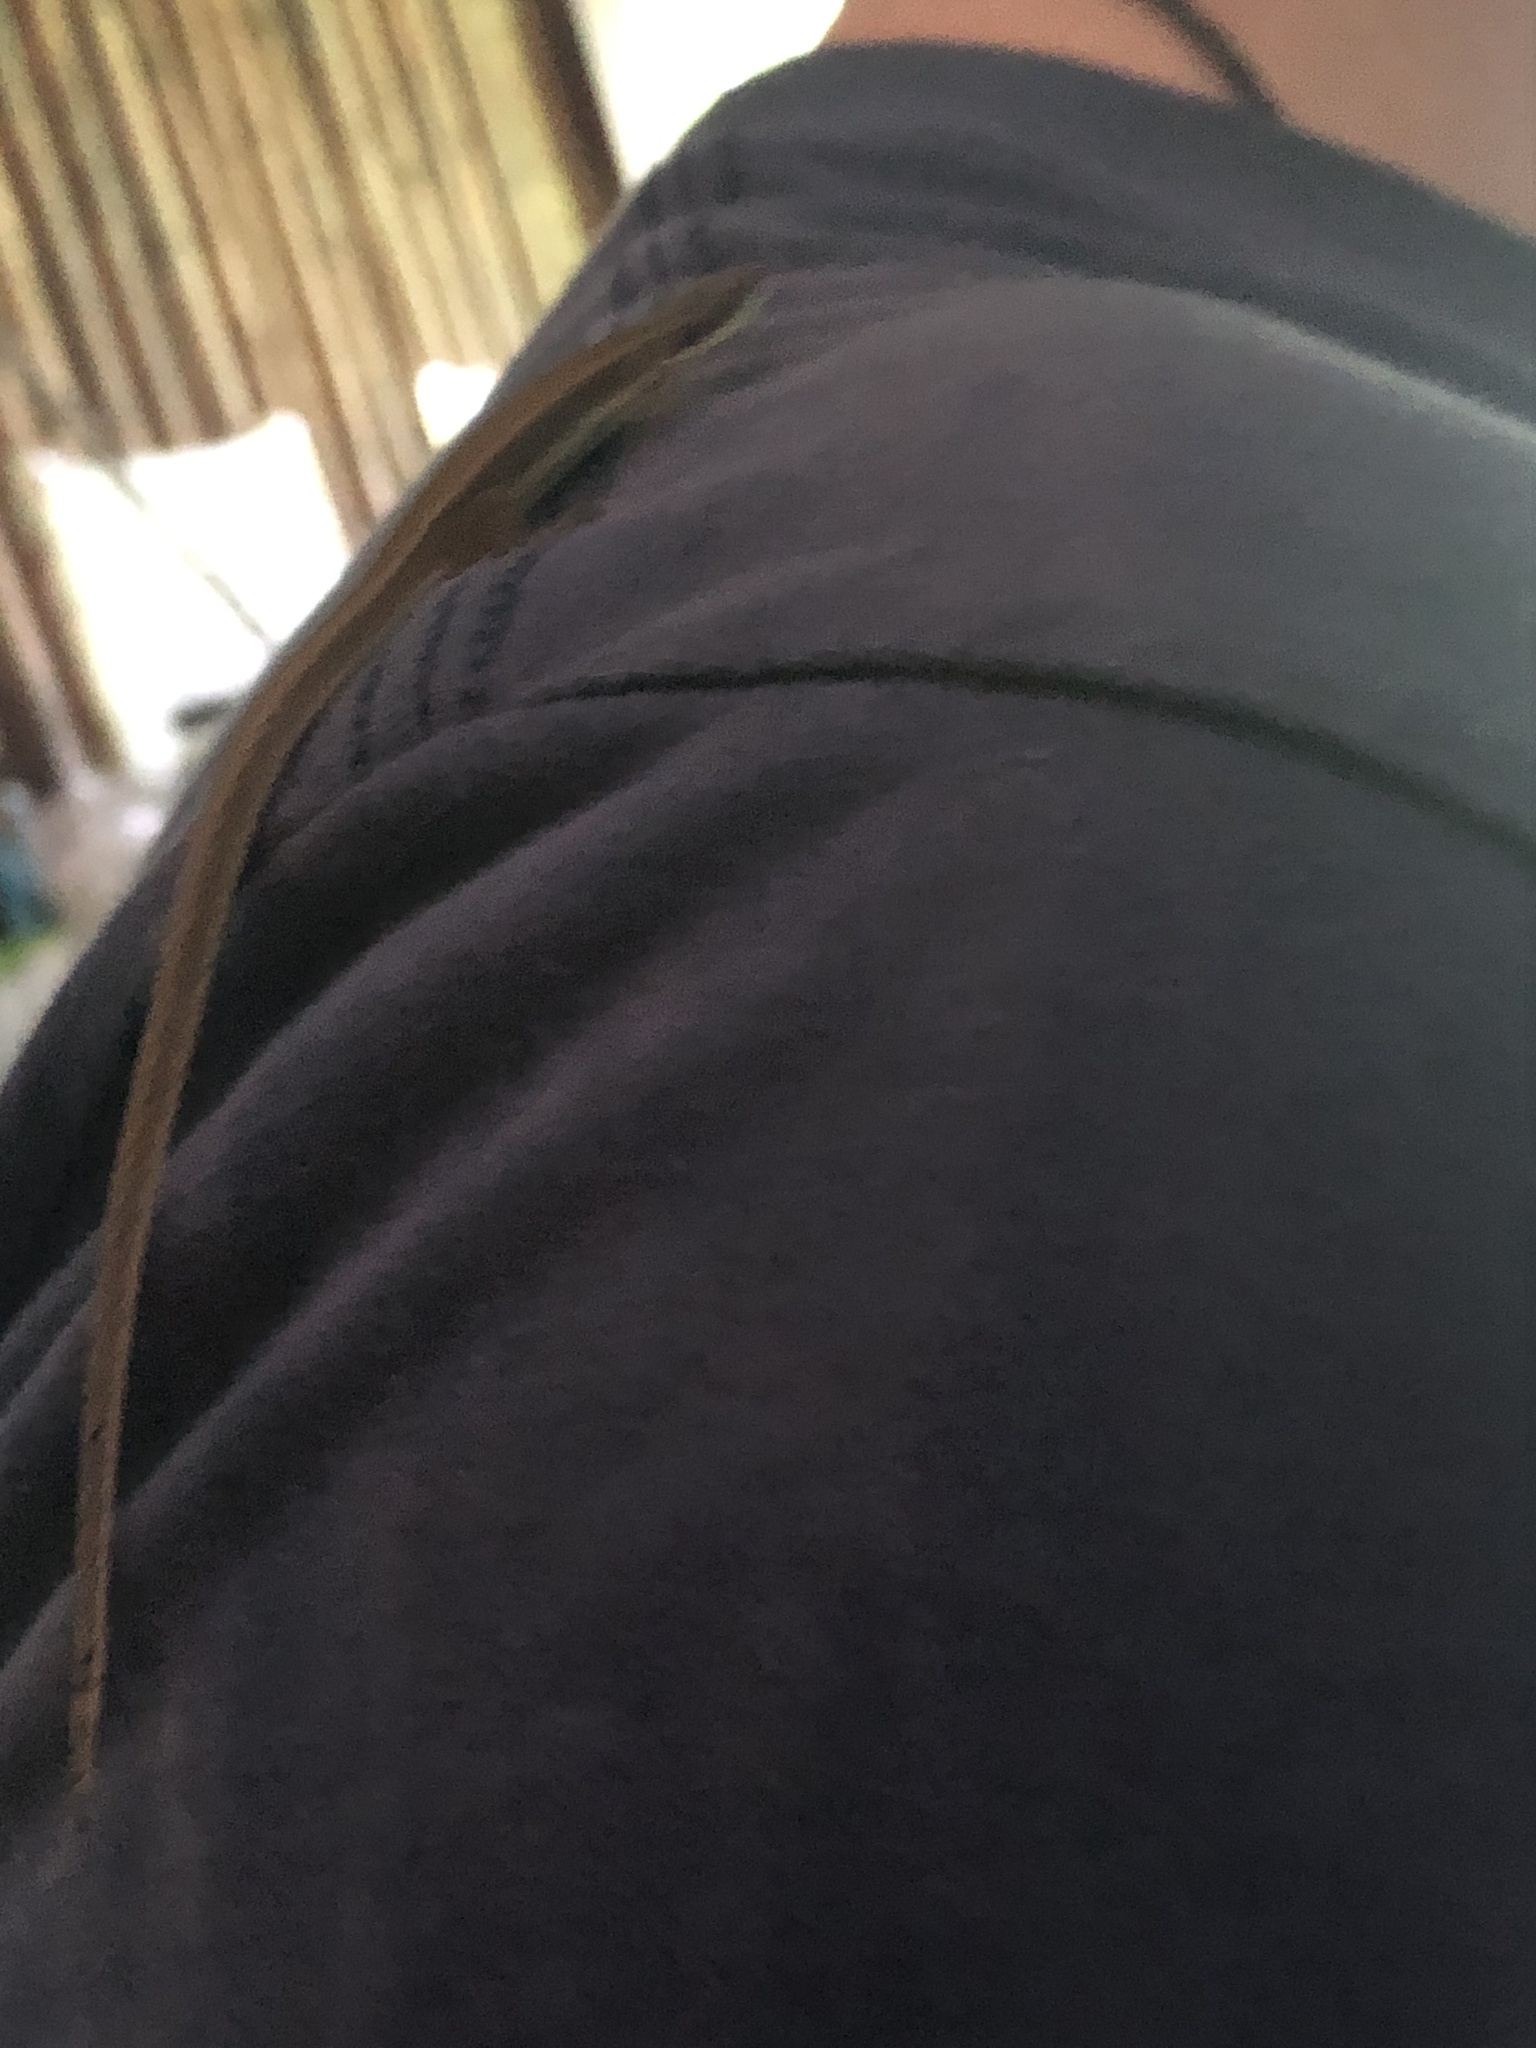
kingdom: Animalia
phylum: Chordata
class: Squamata
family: Gymnophthalmidae
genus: Cercosaura
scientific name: Cercosaura argulus
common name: White-lipped cercosaura
